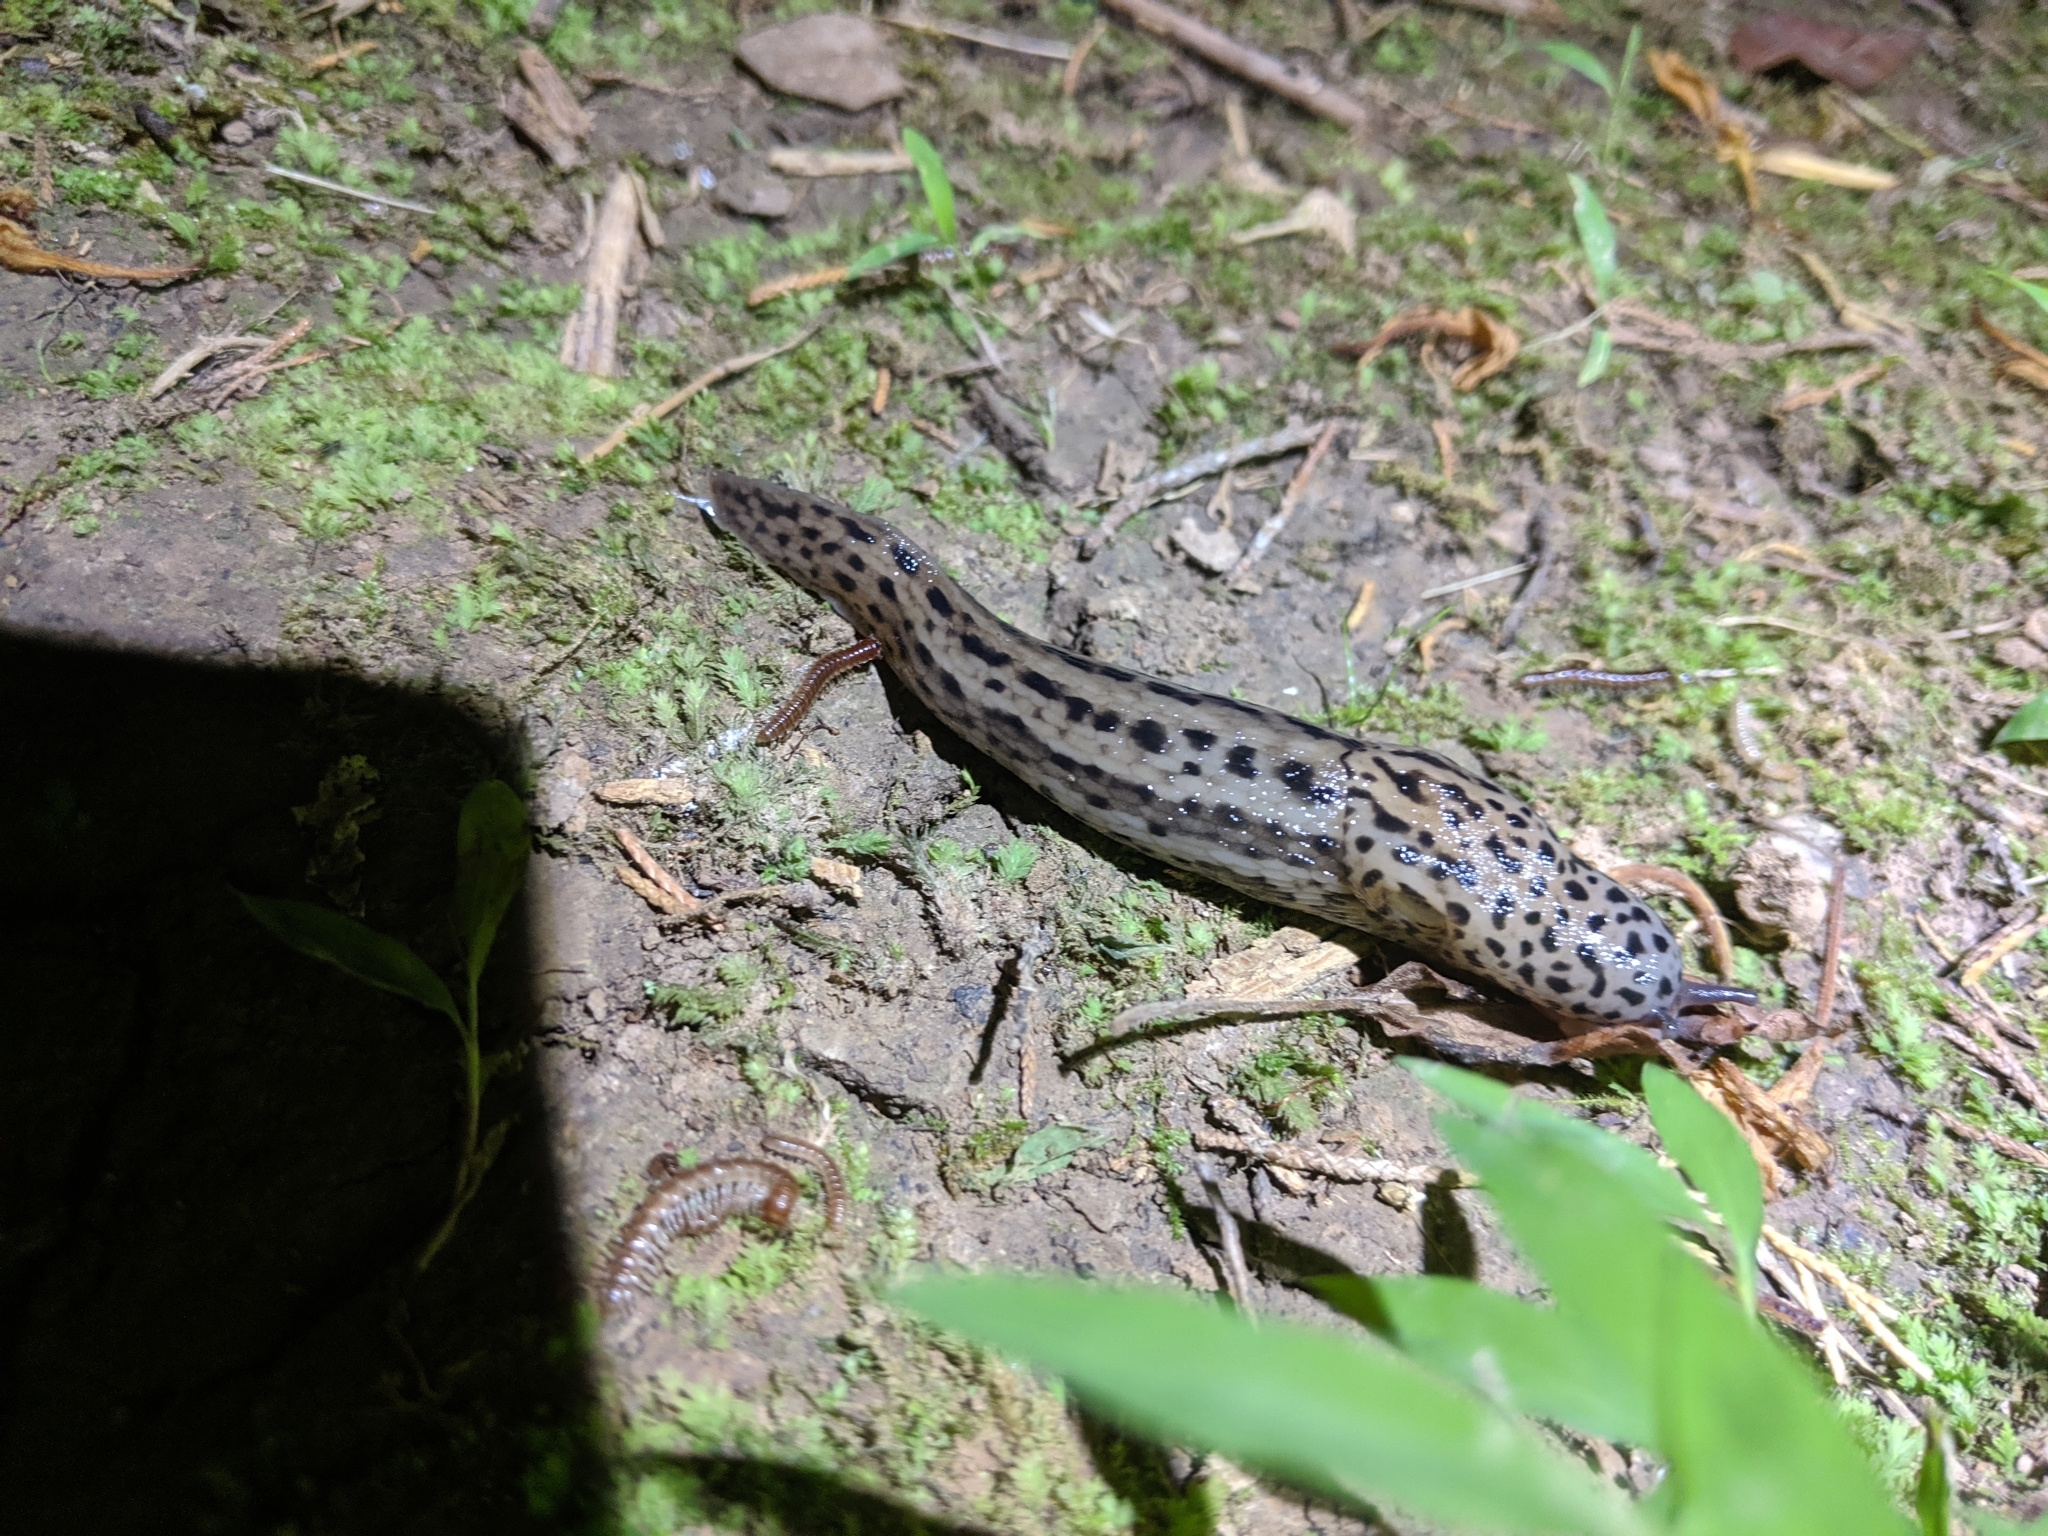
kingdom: Animalia
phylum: Mollusca
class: Gastropoda
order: Stylommatophora
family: Limacidae
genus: Limax
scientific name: Limax maximus
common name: Great grey slug
